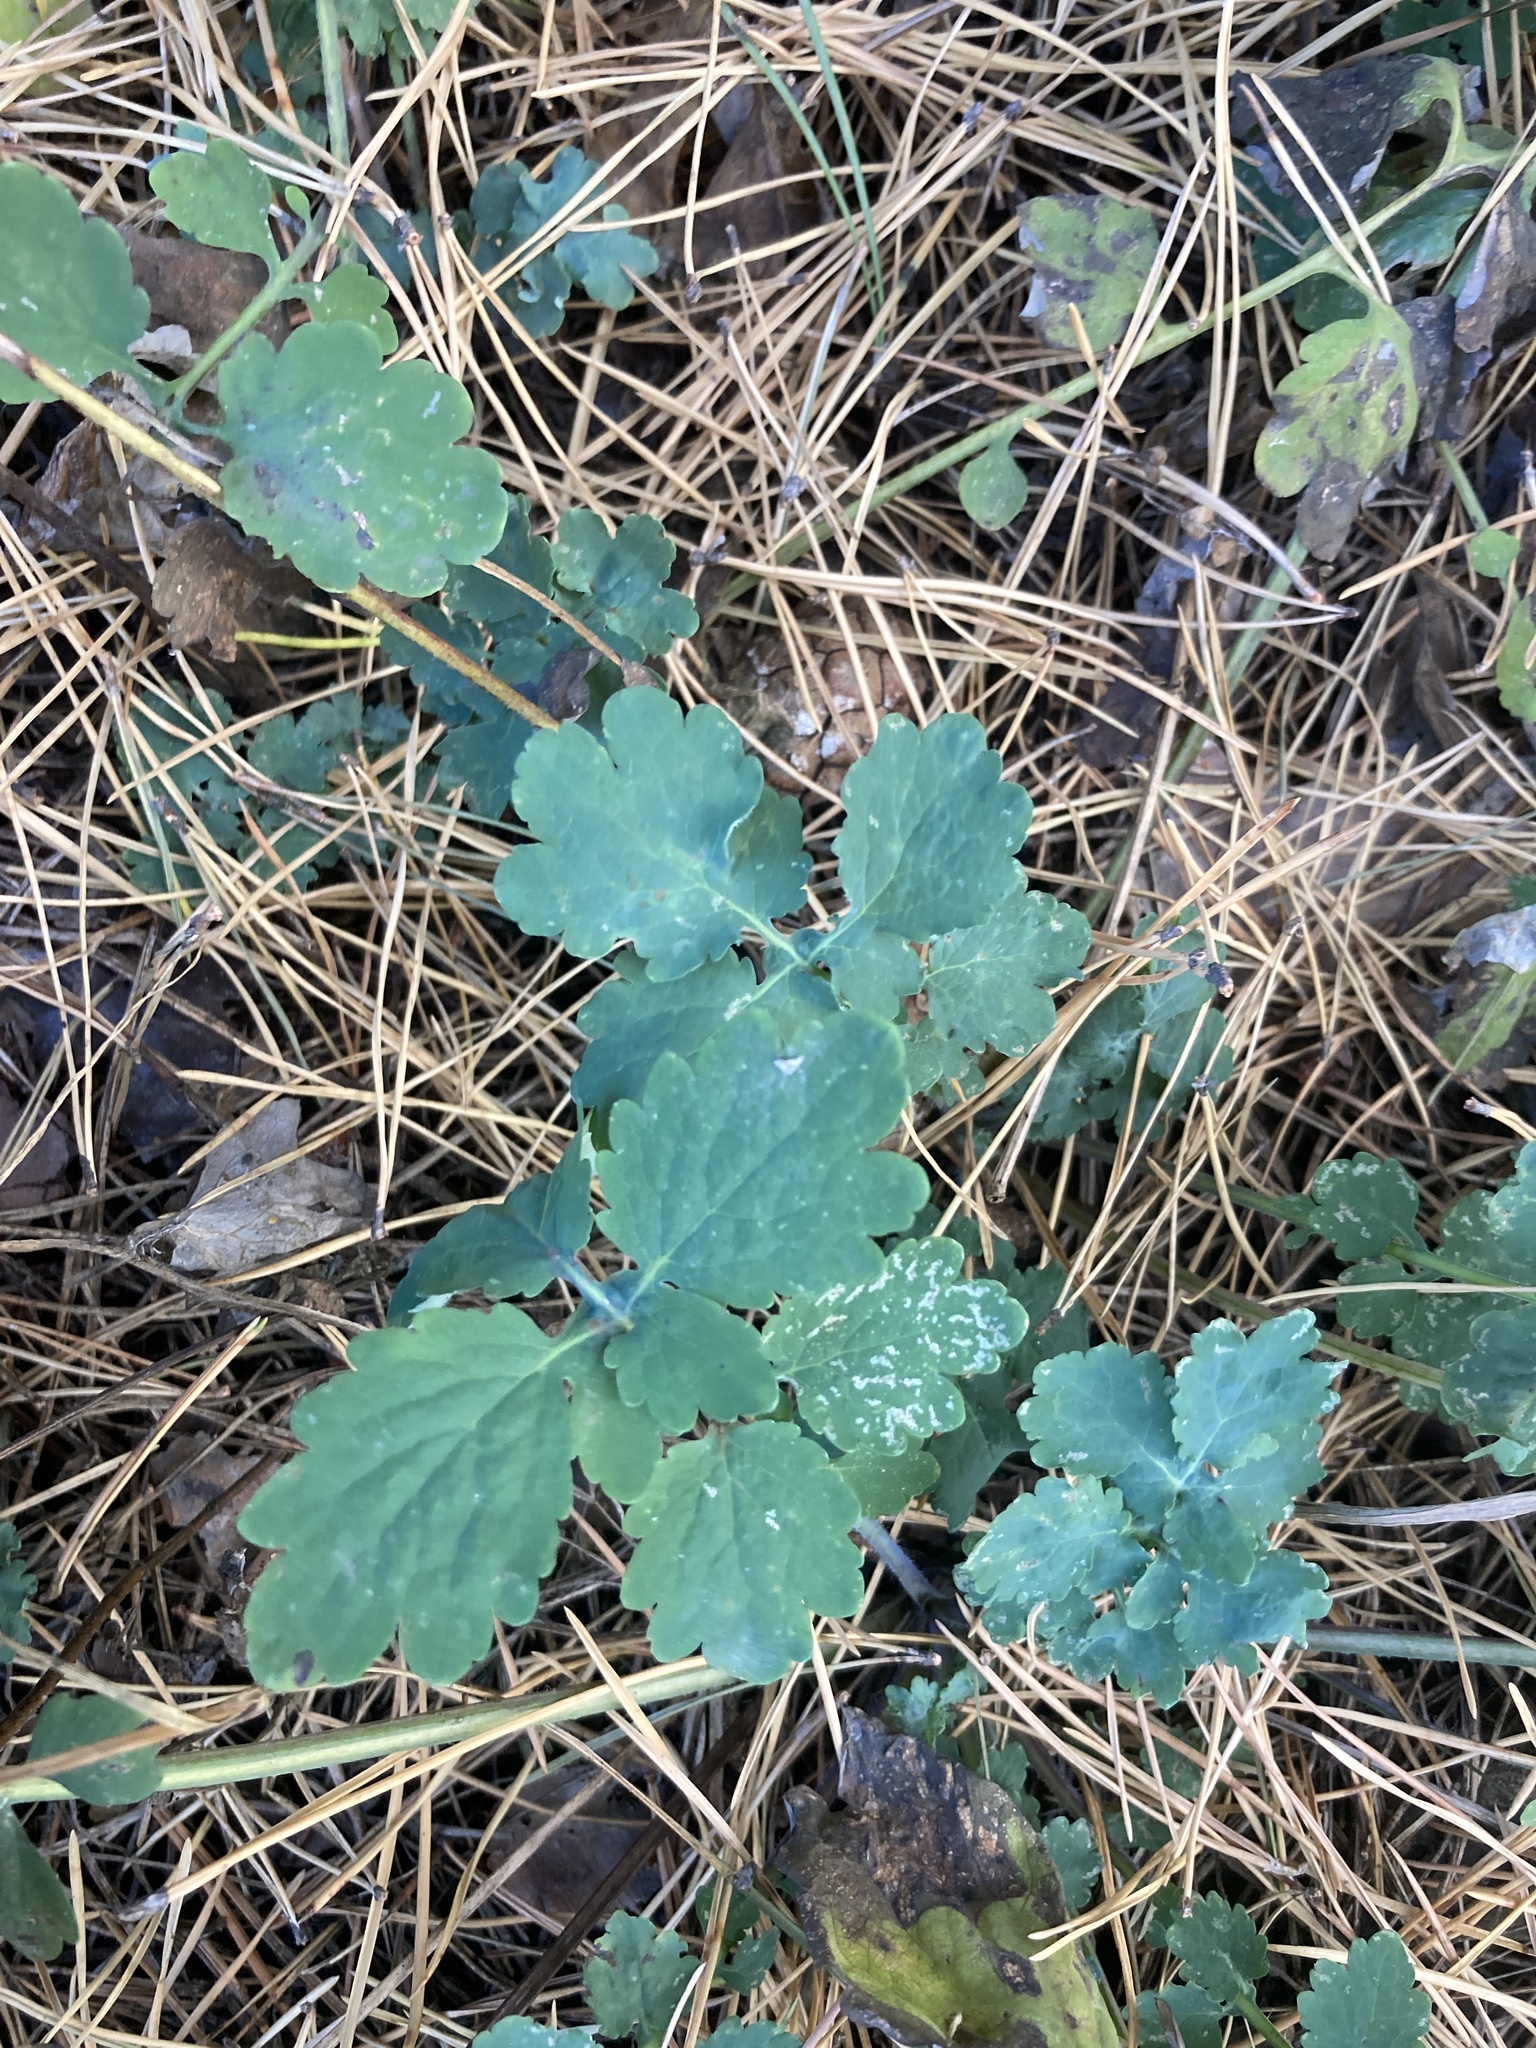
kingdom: Plantae
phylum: Tracheophyta
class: Magnoliopsida
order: Ranunculales
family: Papaveraceae
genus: Chelidonium
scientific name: Chelidonium majus
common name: Greater celandine
